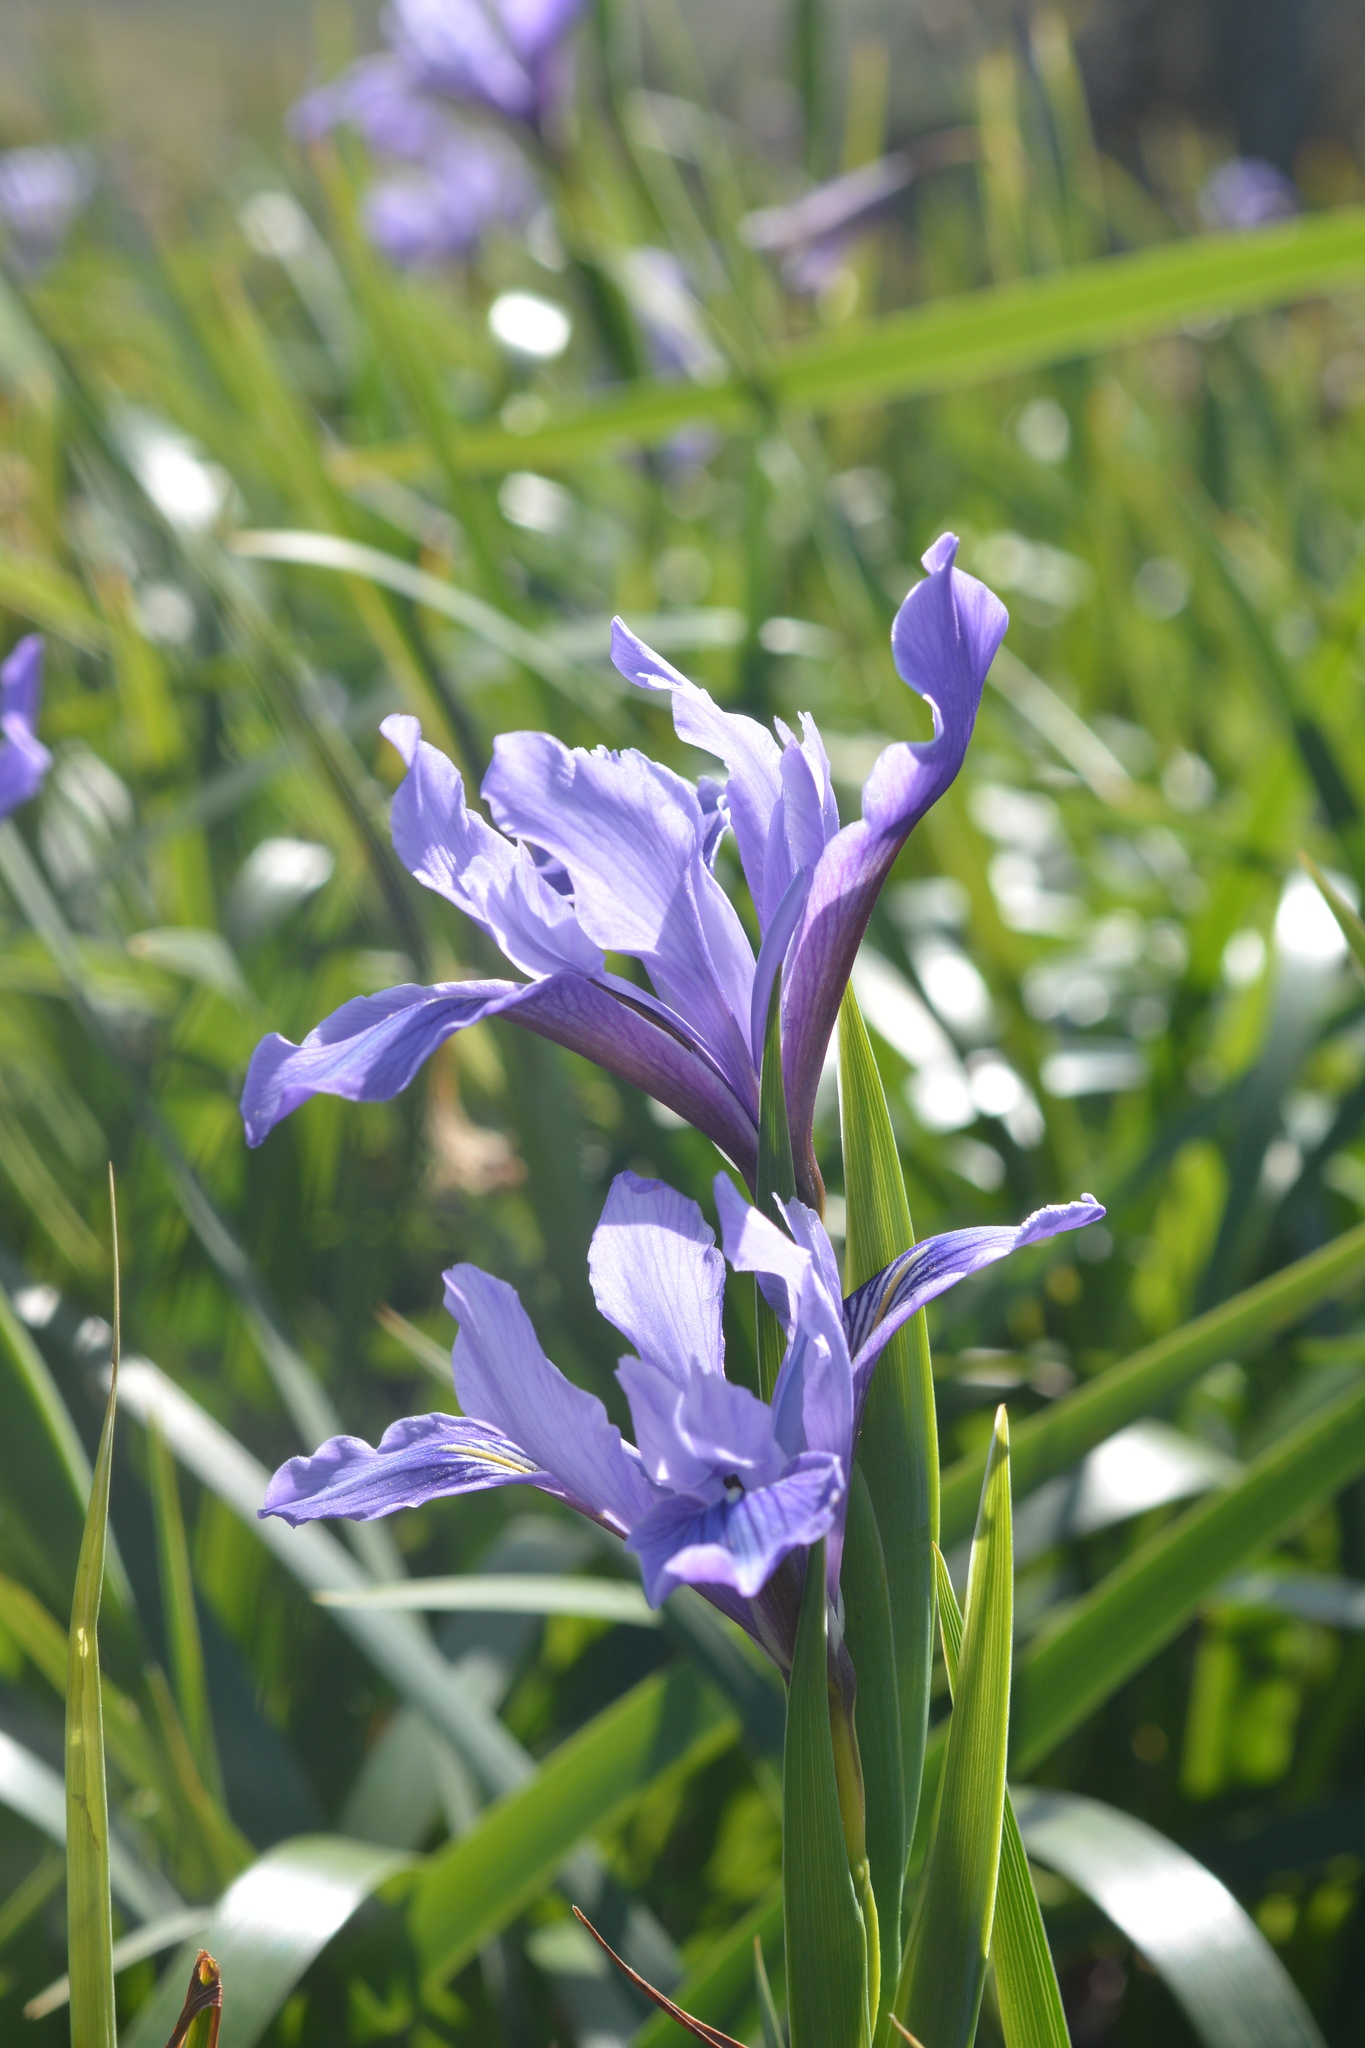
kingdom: Plantae
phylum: Tracheophyta
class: Liliopsida
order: Asparagales
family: Iridaceae
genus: Iris
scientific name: Iris douglasiana
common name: Marin iris
